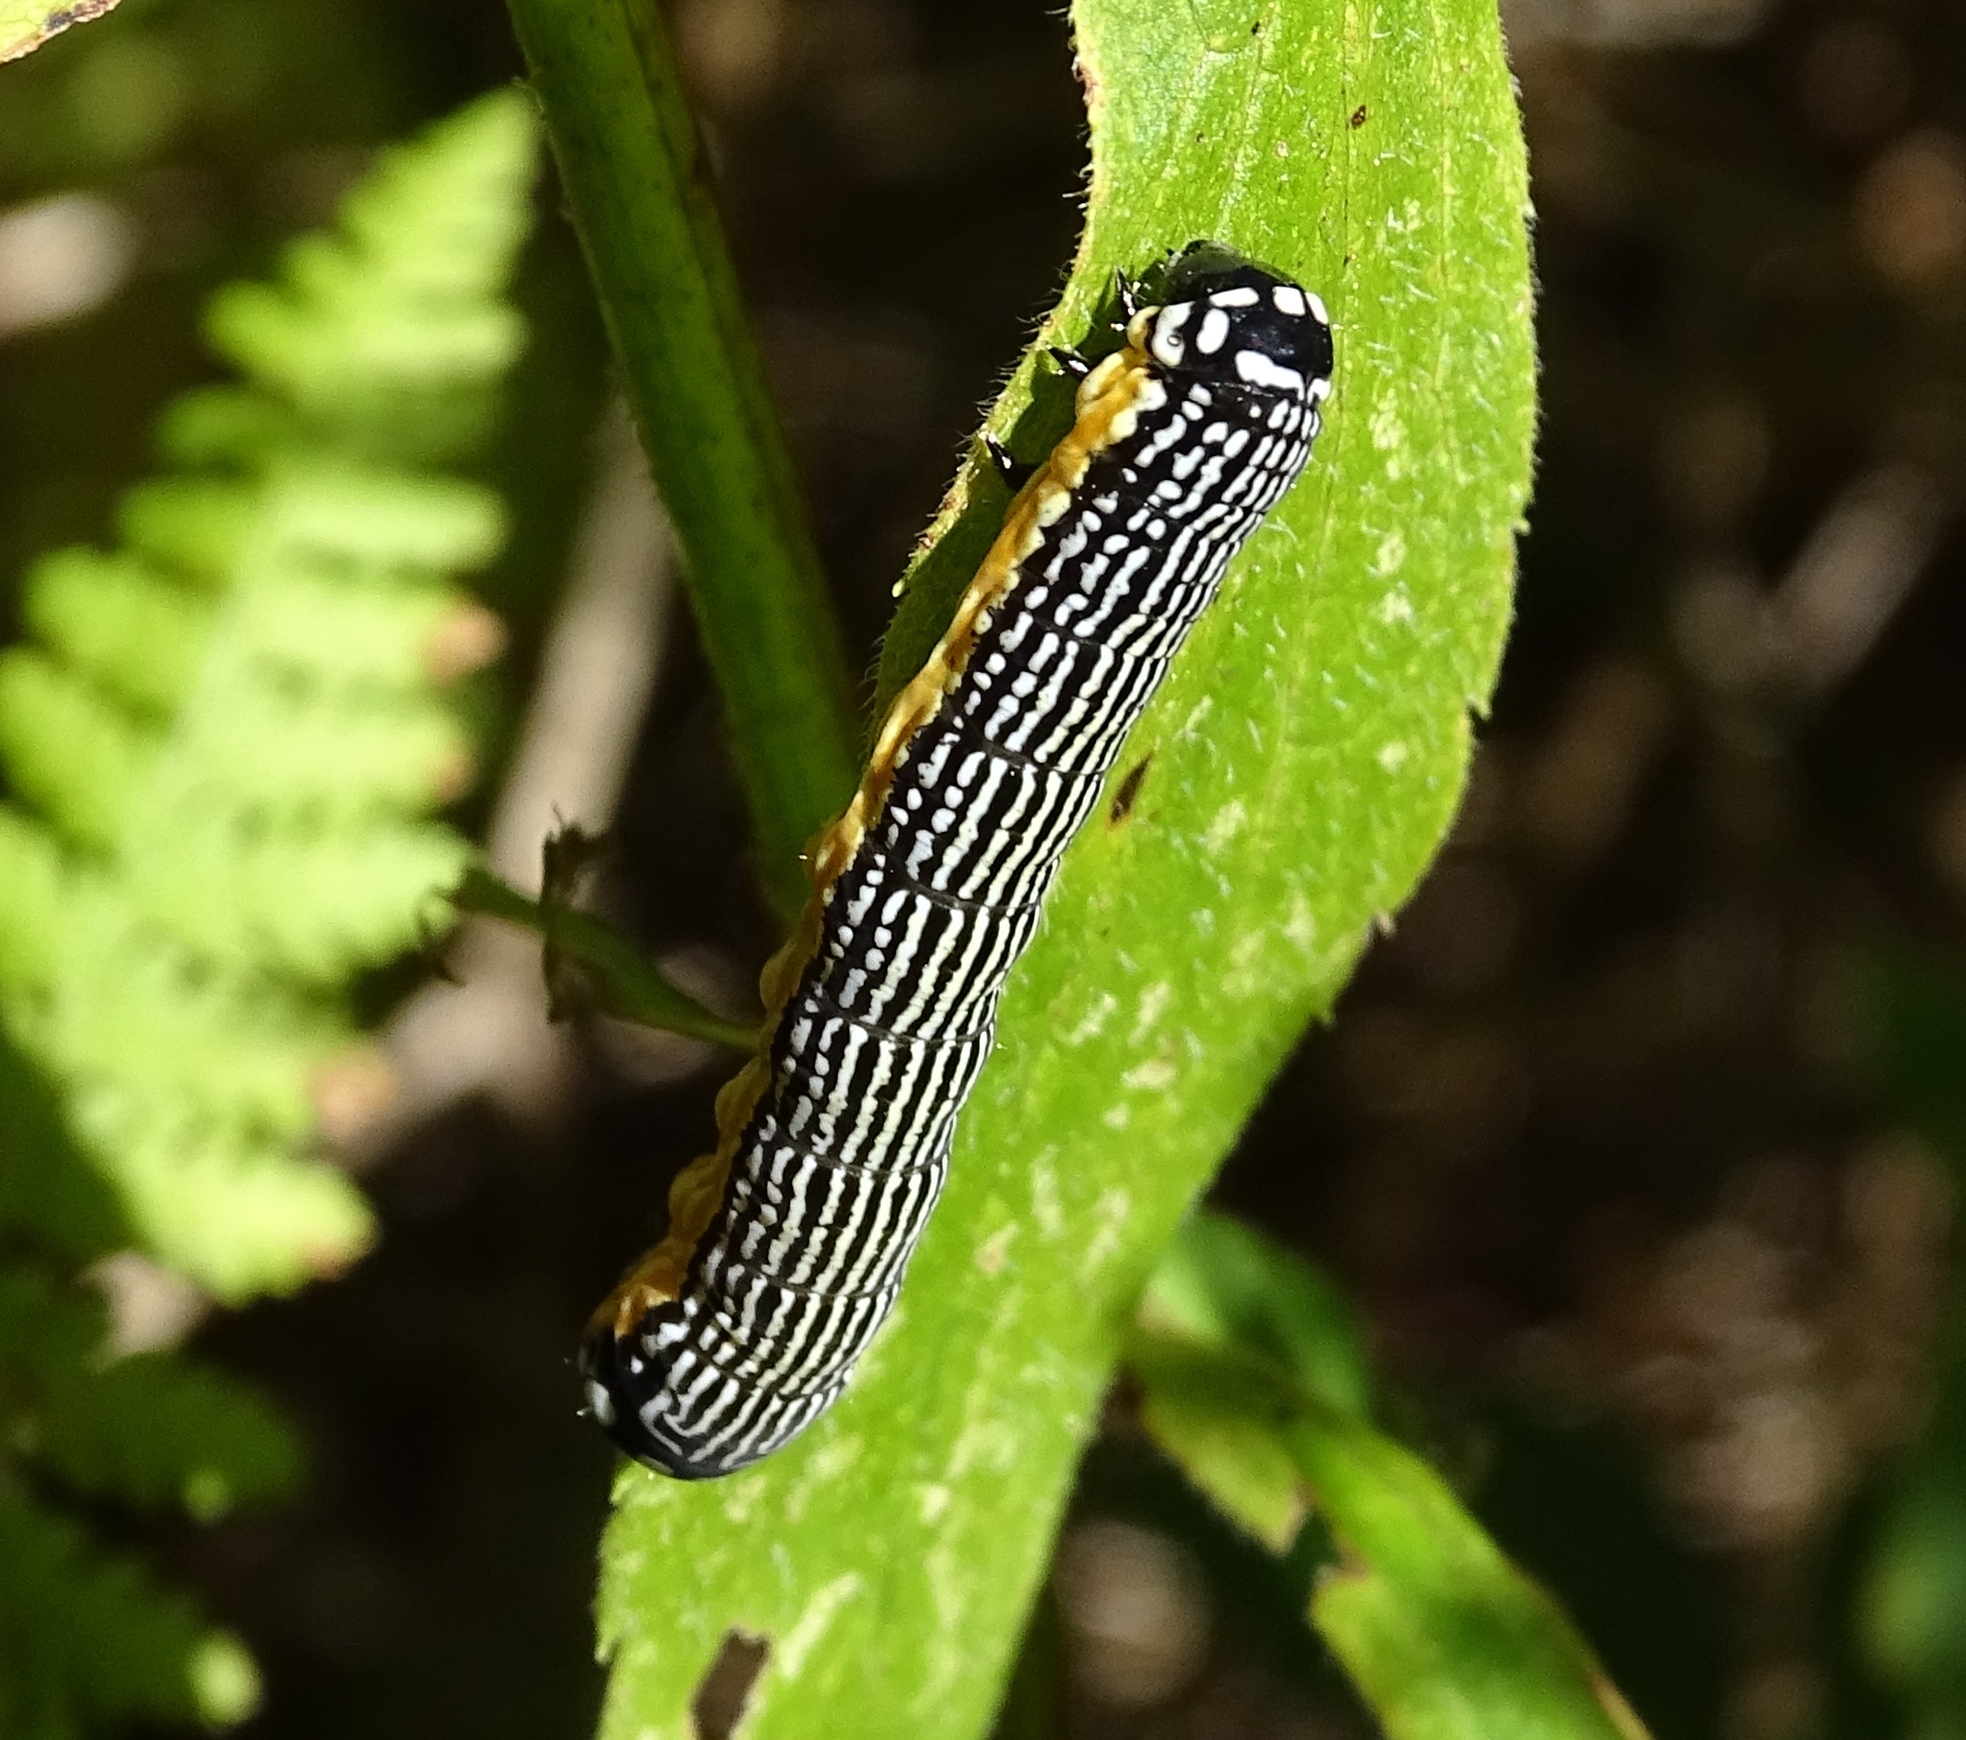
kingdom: Animalia
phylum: Arthropoda
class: Insecta
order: Lepidoptera
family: Noctuidae
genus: Phosphila
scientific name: Phosphila turbulenta
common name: Turbulent phosphila moth
